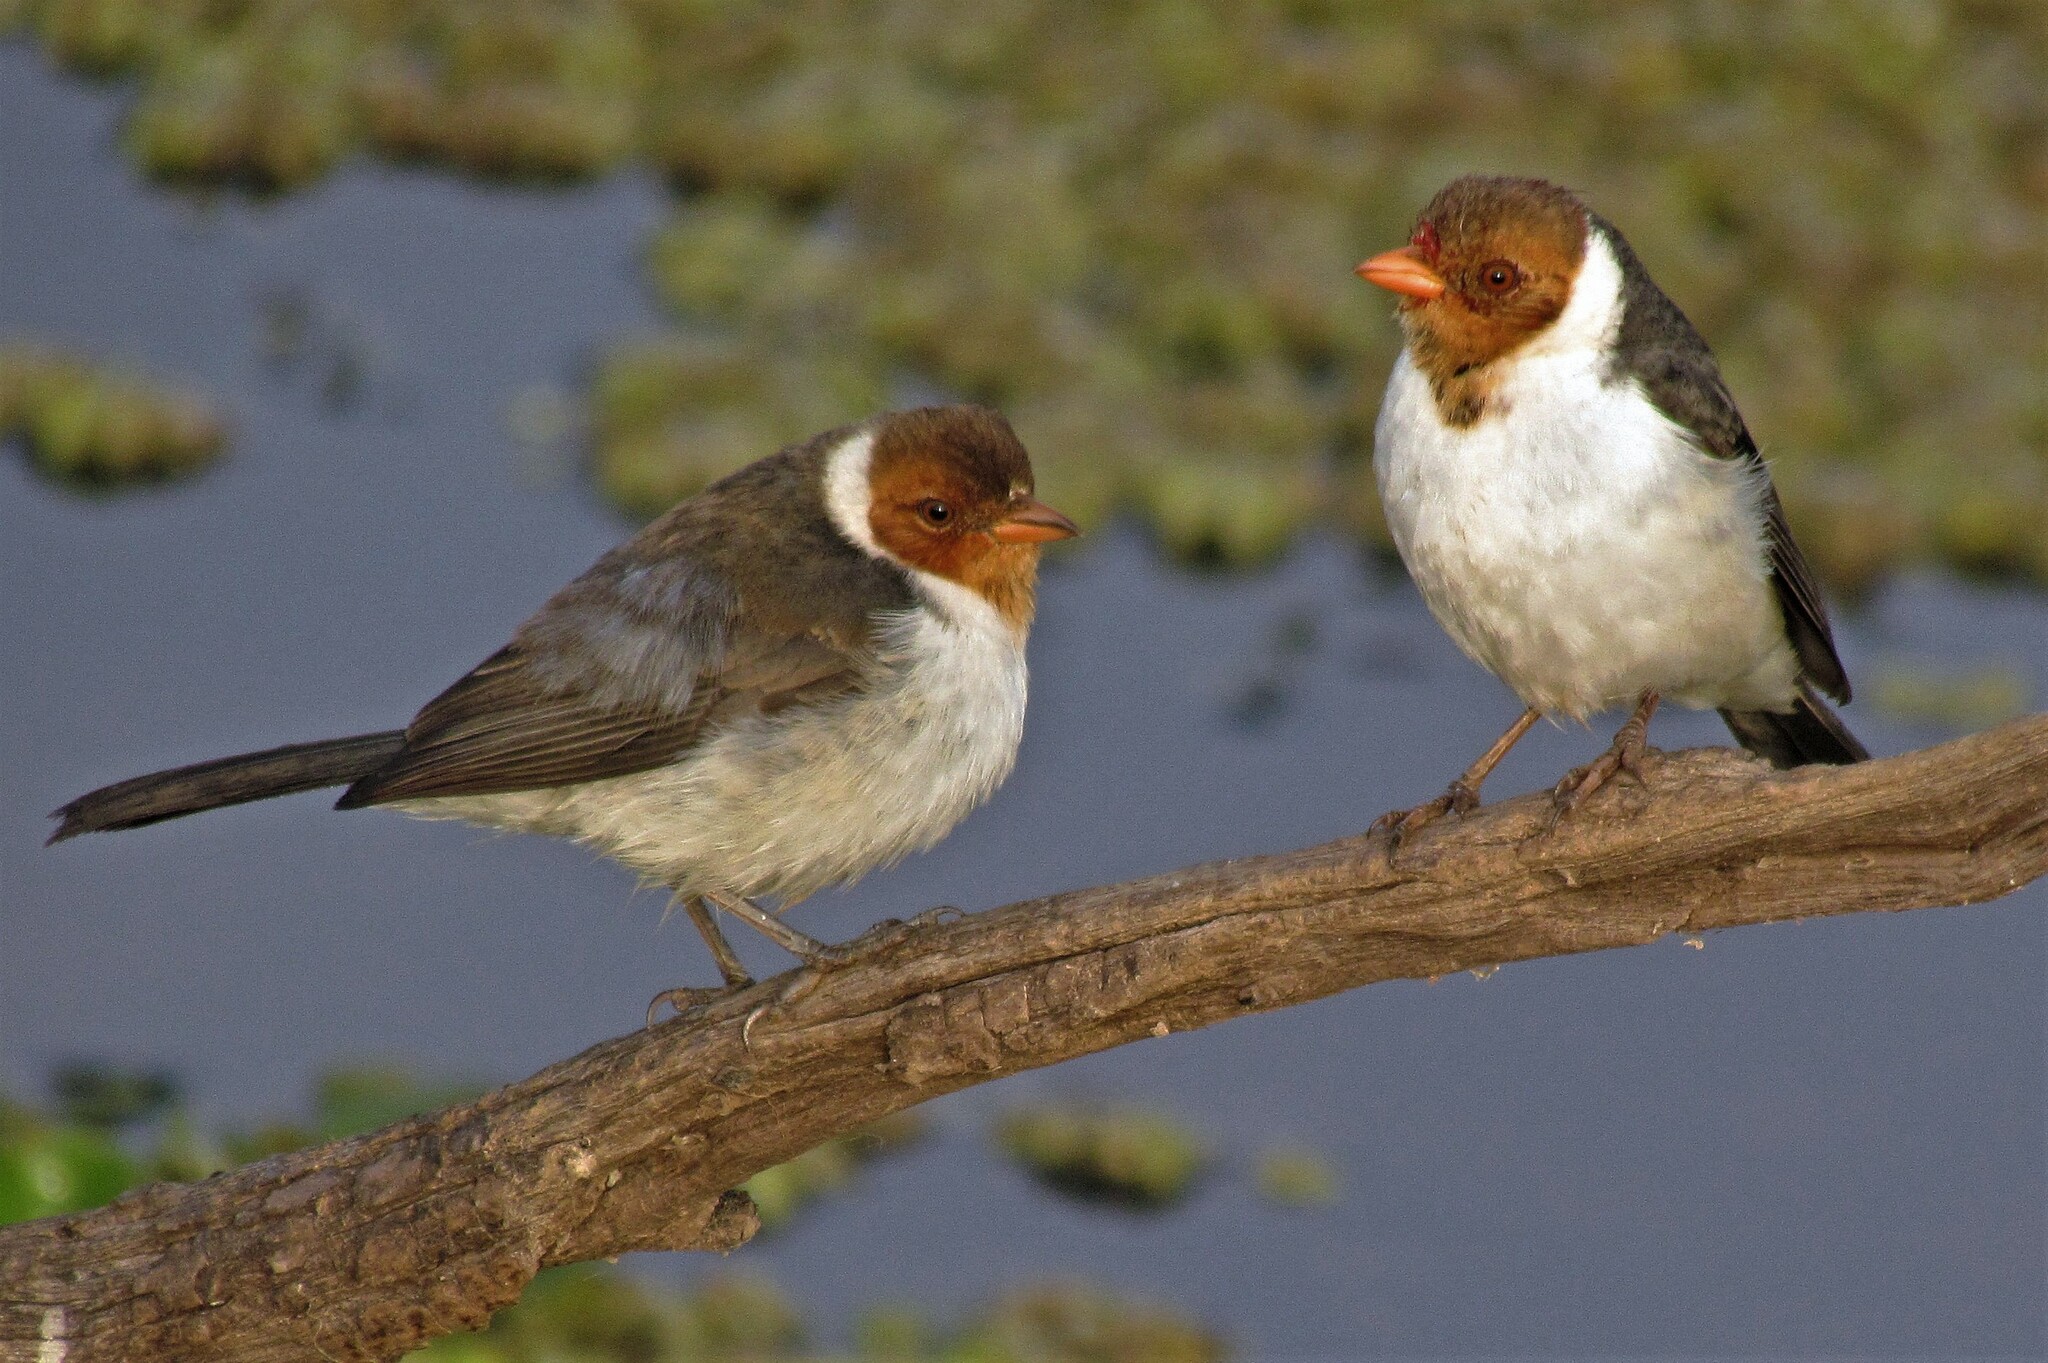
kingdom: Animalia
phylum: Chordata
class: Aves
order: Passeriformes
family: Thraupidae
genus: Paroaria
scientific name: Paroaria capitata
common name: Yellow-billed cardinal
